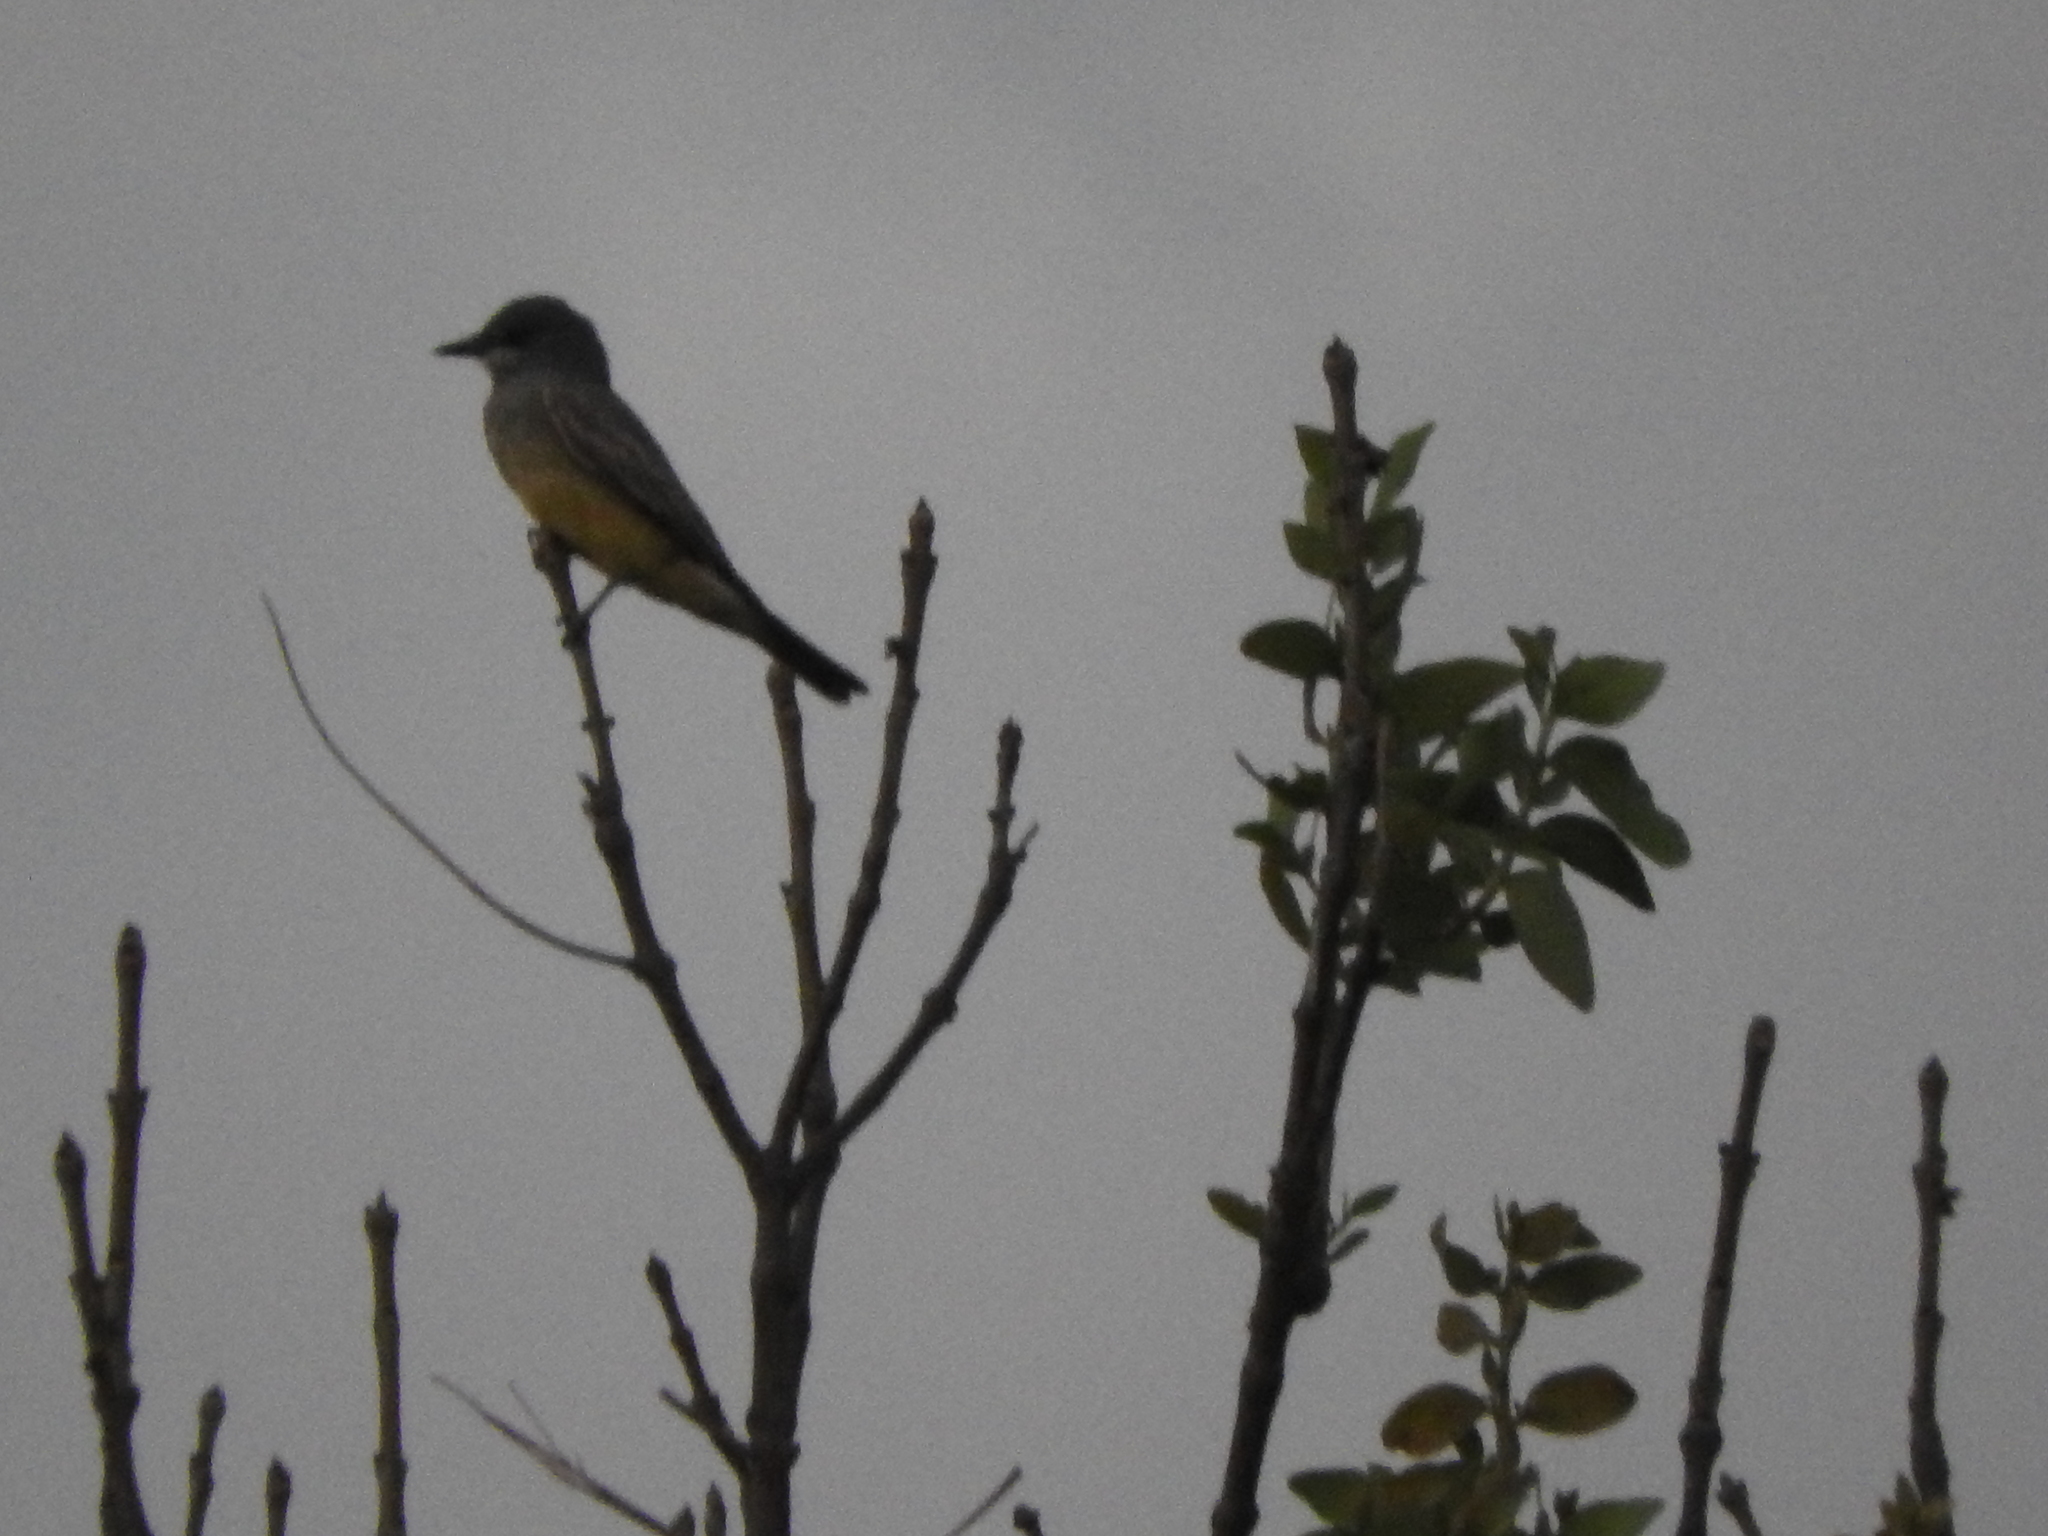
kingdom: Animalia
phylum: Chordata
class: Aves
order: Passeriformes
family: Tyrannidae
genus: Tyrannus
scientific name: Tyrannus vociferans
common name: Cassin's kingbird
